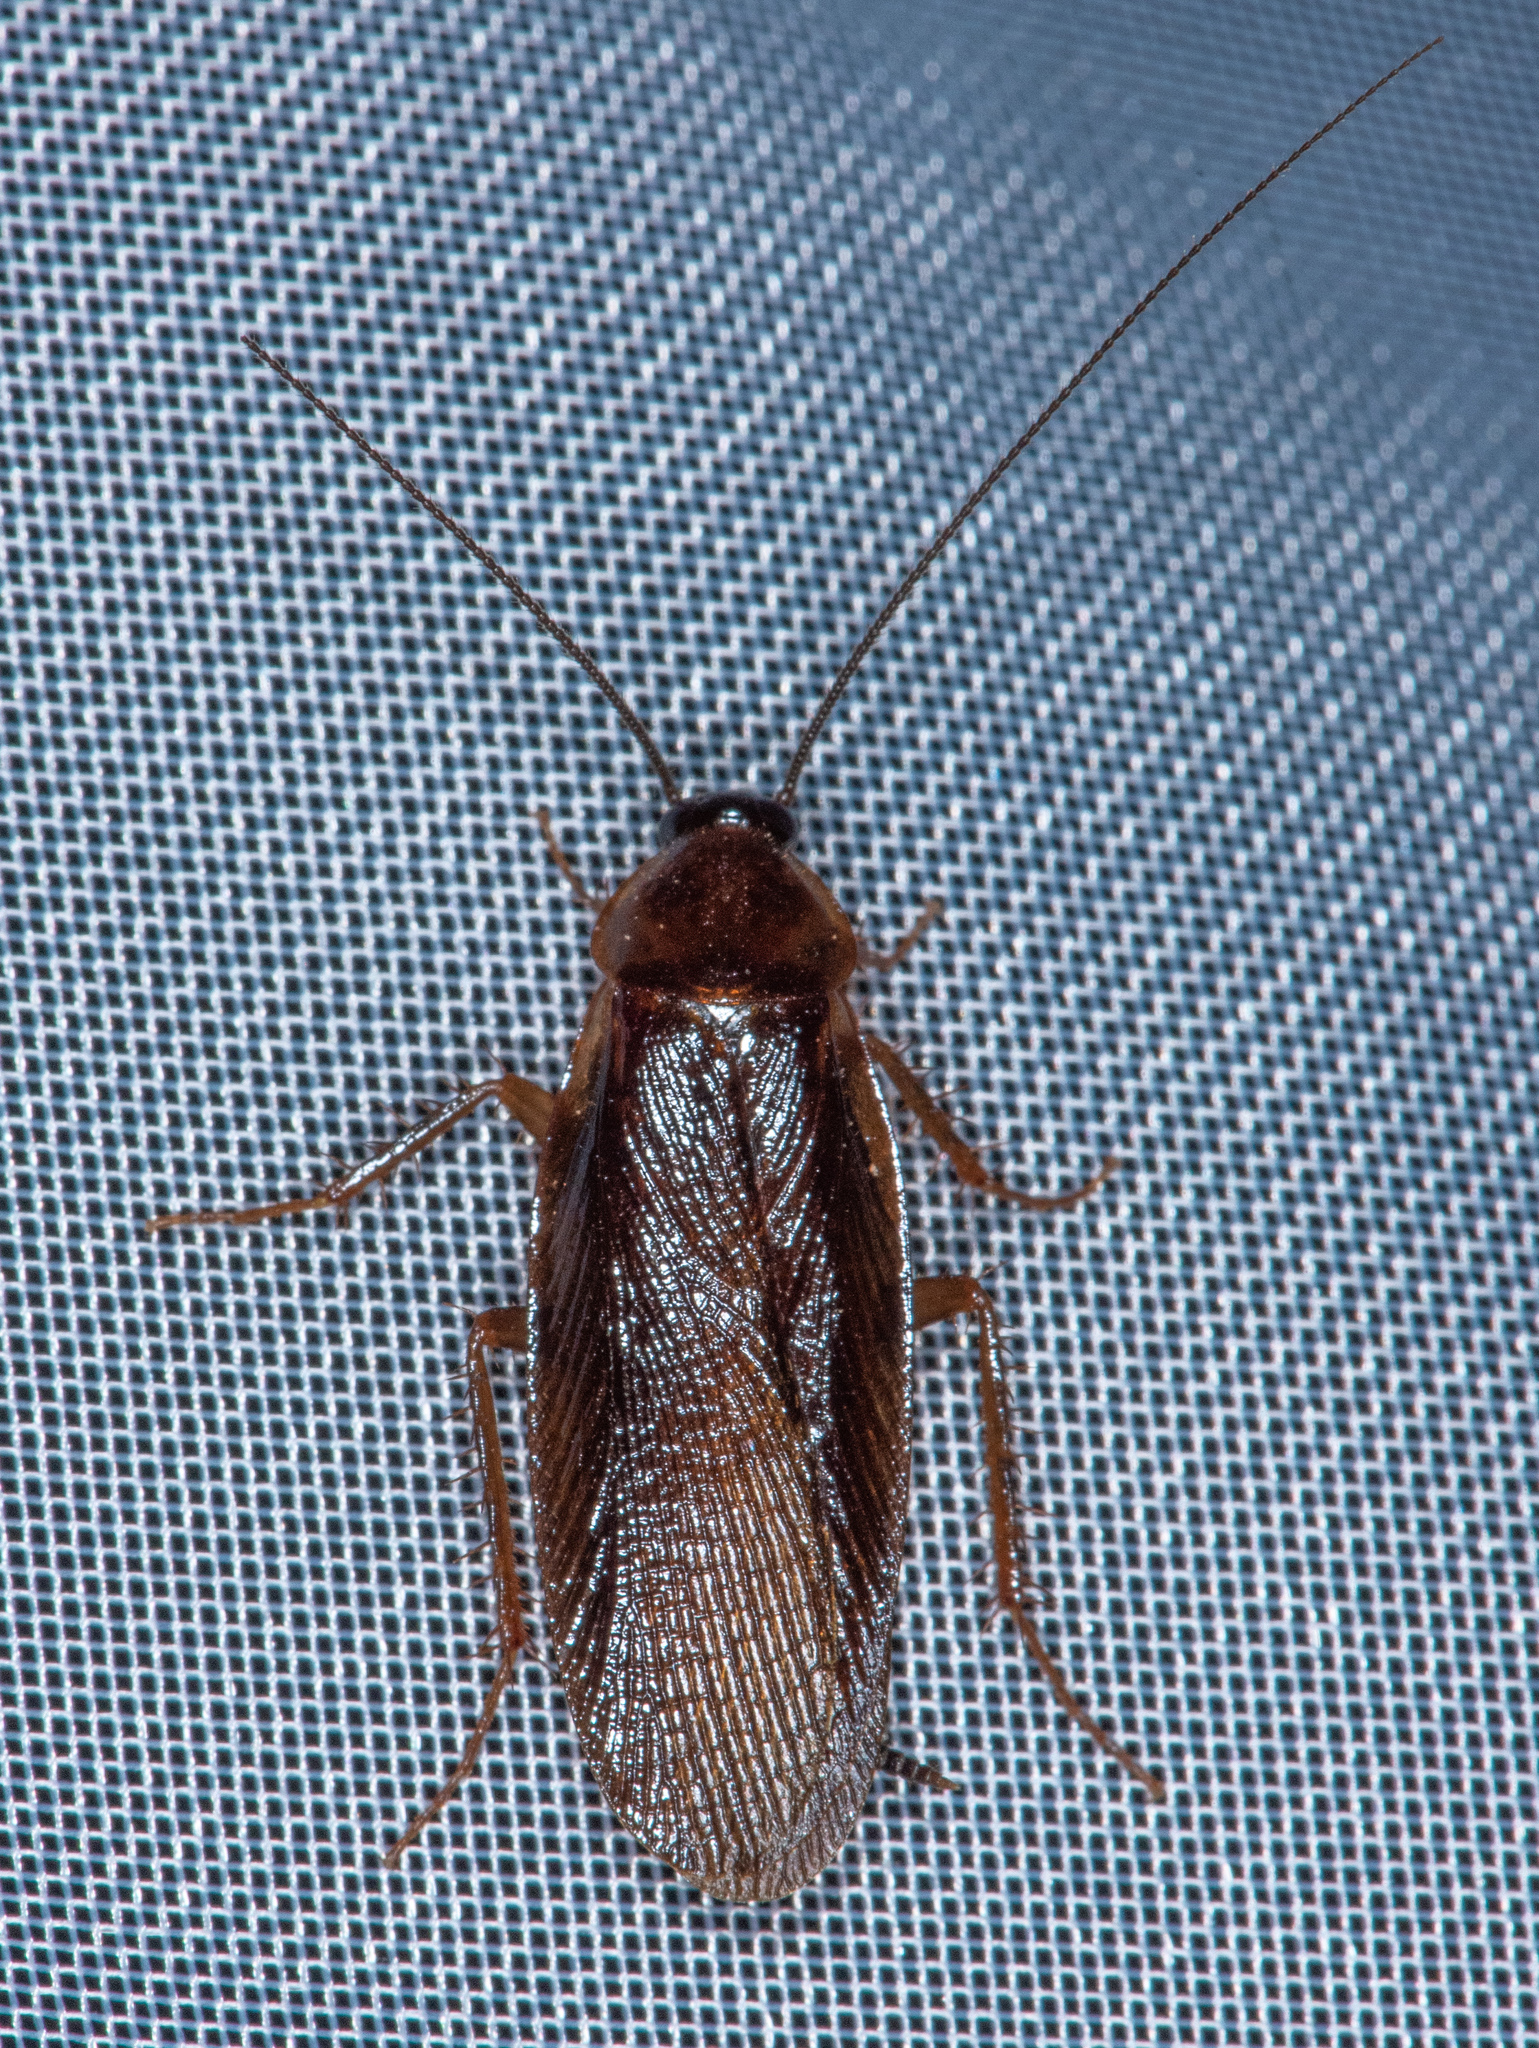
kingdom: Animalia
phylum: Arthropoda
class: Insecta
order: Blattodea
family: Ectobiidae
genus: Parcoblatta
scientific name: Parcoblatta americana
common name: Western wood cockroach
